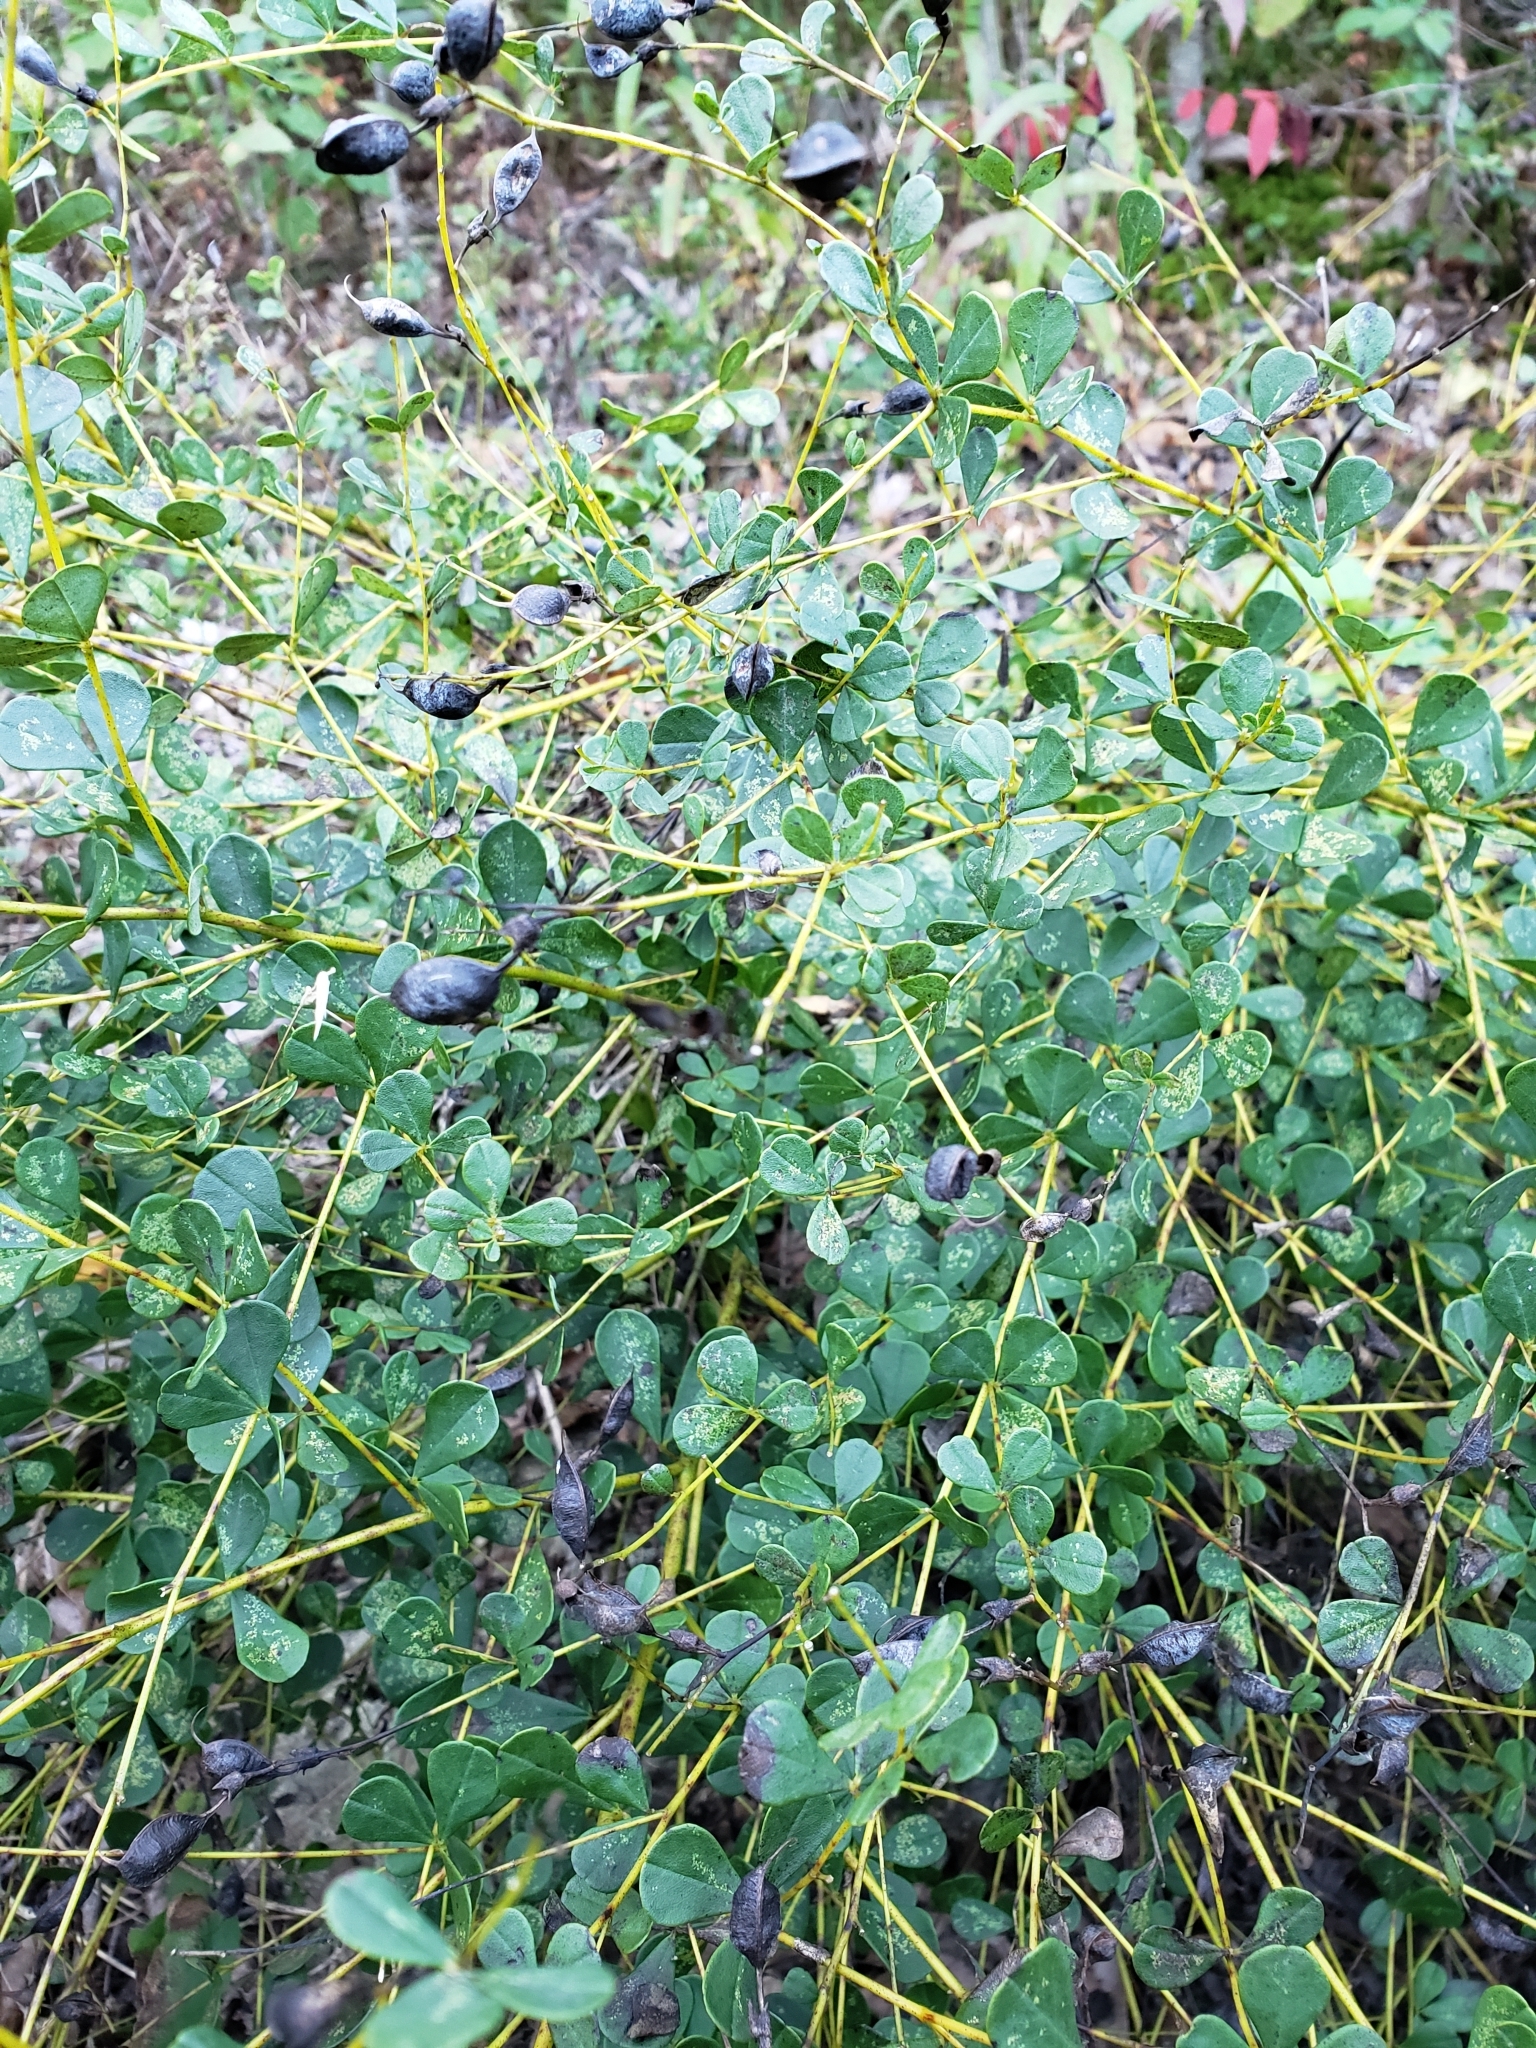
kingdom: Plantae
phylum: Tracheophyta
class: Magnoliopsida
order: Fabales
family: Fabaceae
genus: Baptisia
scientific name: Baptisia tinctoria
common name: Wild indigo
